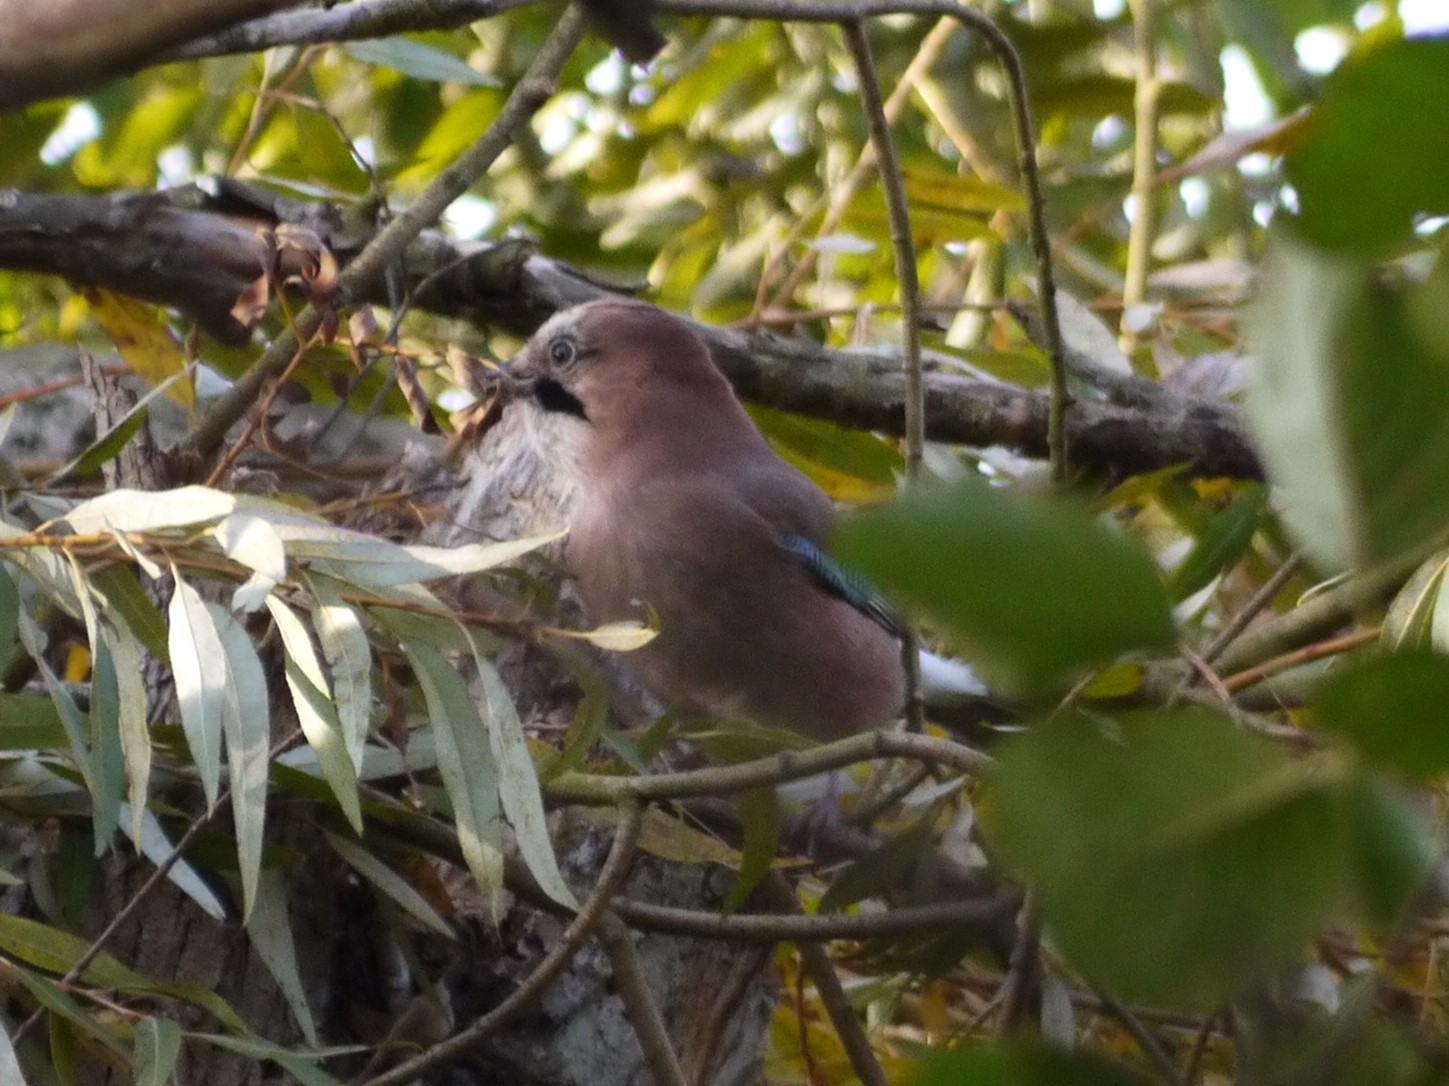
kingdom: Animalia
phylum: Chordata
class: Aves
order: Passeriformes
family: Corvidae
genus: Garrulus
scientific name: Garrulus glandarius
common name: Eurasian jay
